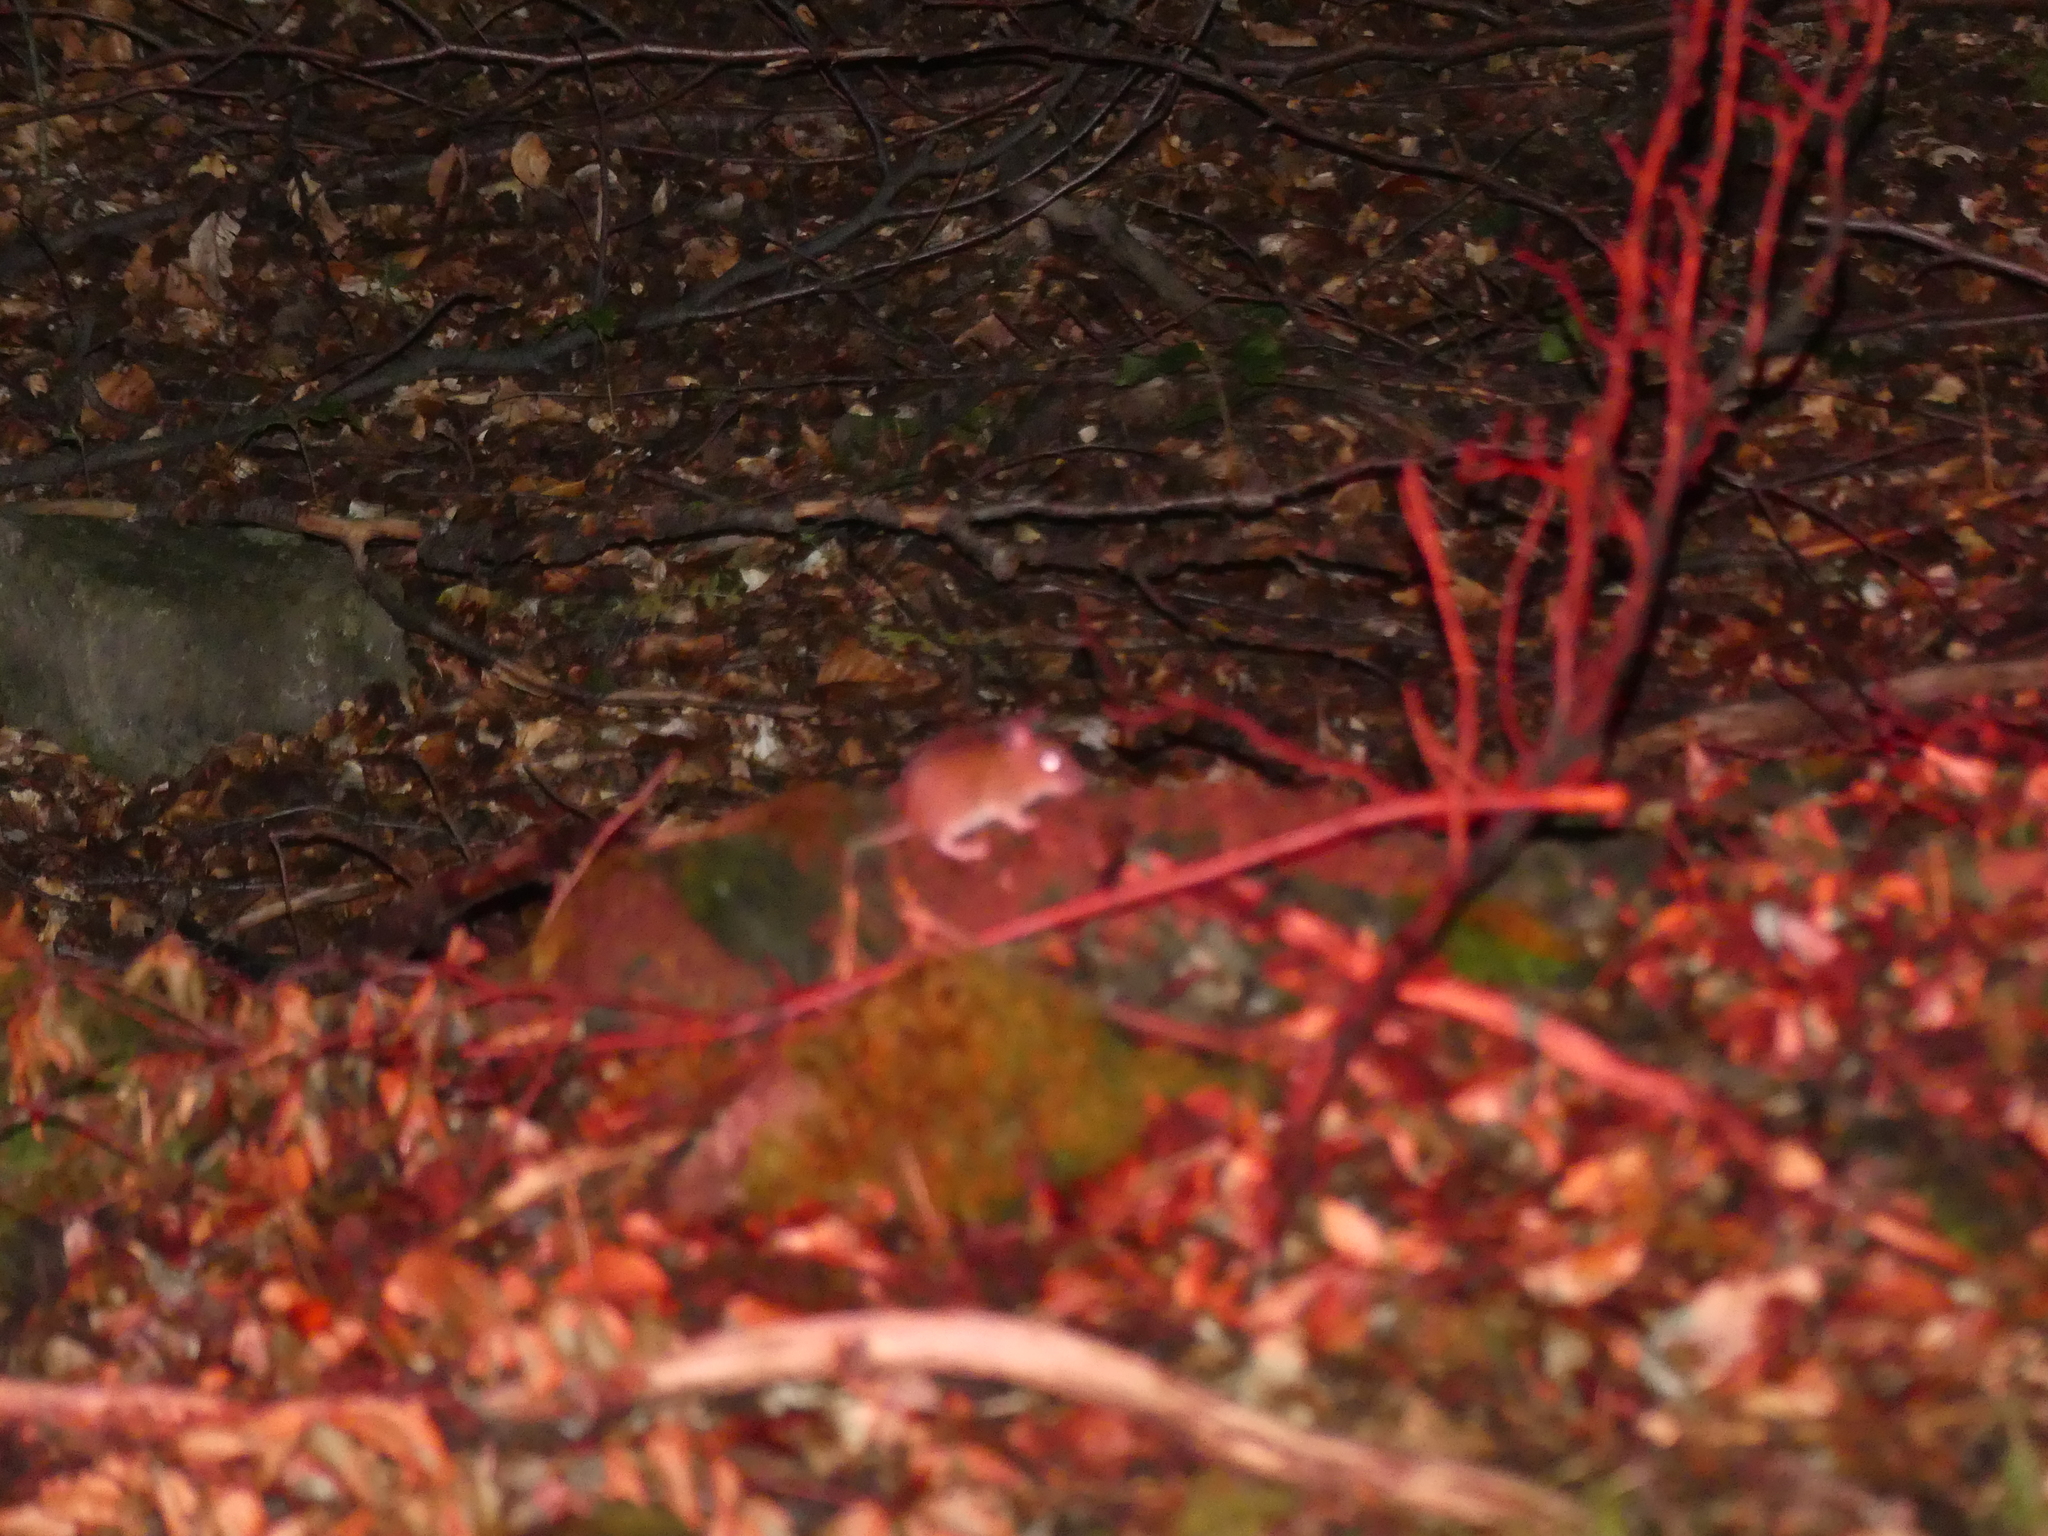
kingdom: Animalia
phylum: Chordata
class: Mammalia
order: Rodentia
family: Muridae
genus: Apodemus
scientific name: Apodemus agrarius
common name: Striped field mouse
